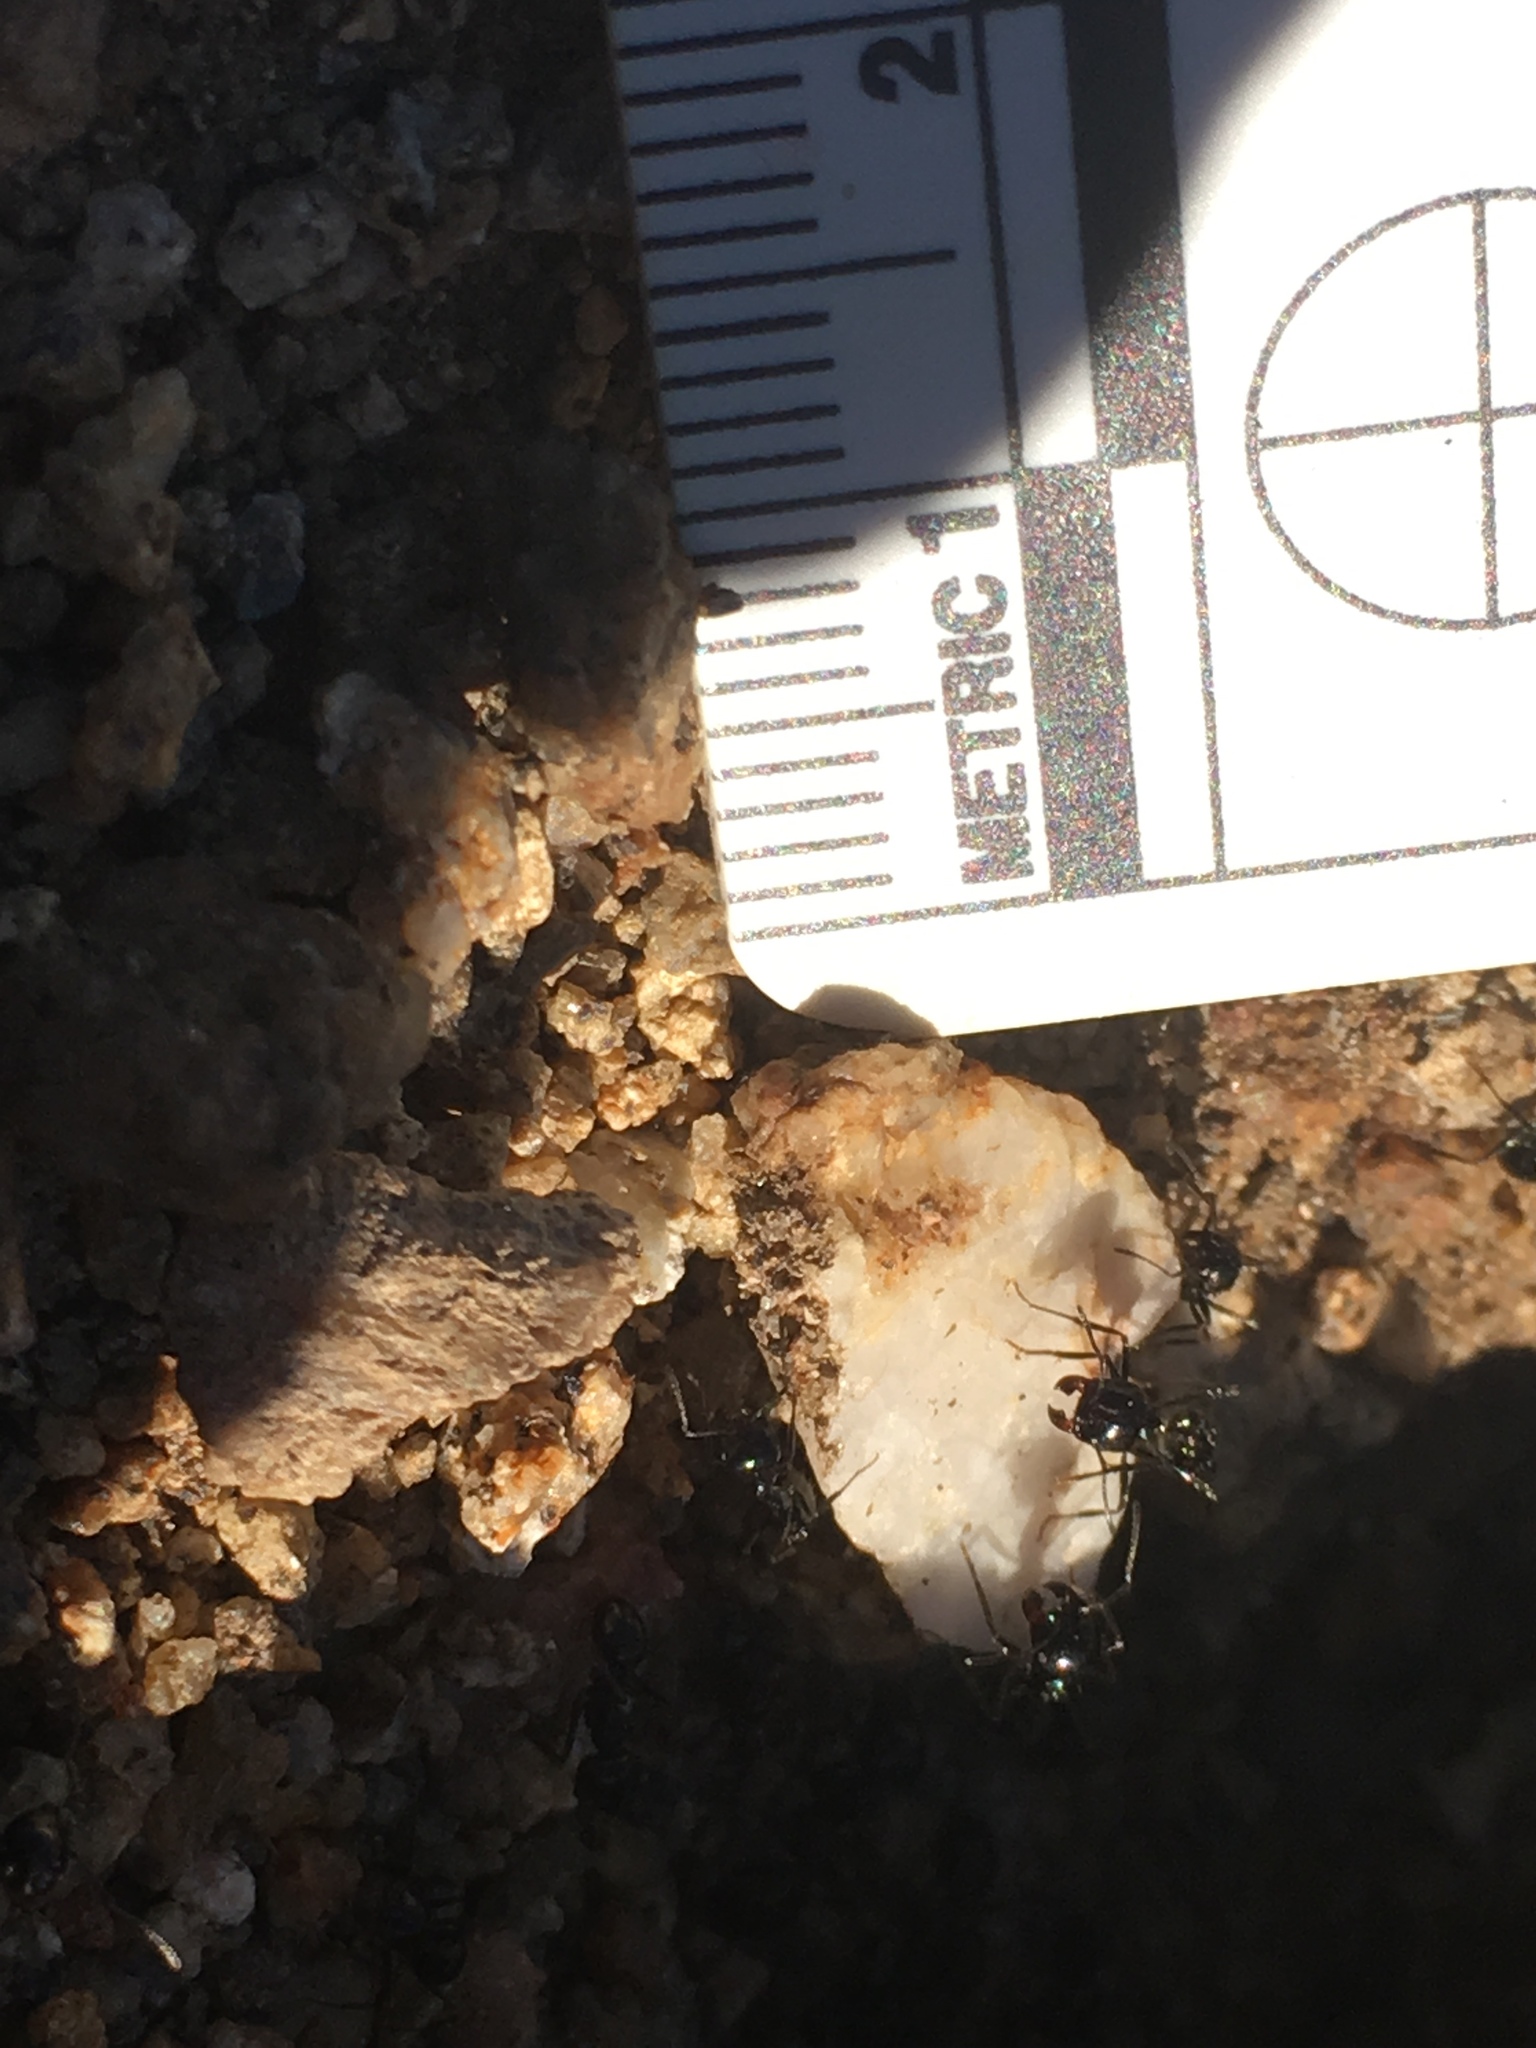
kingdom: Animalia
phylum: Arthropoda
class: Insecta
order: Hymenoptera
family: Formicidae
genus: Messor
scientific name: Messor pergandei
